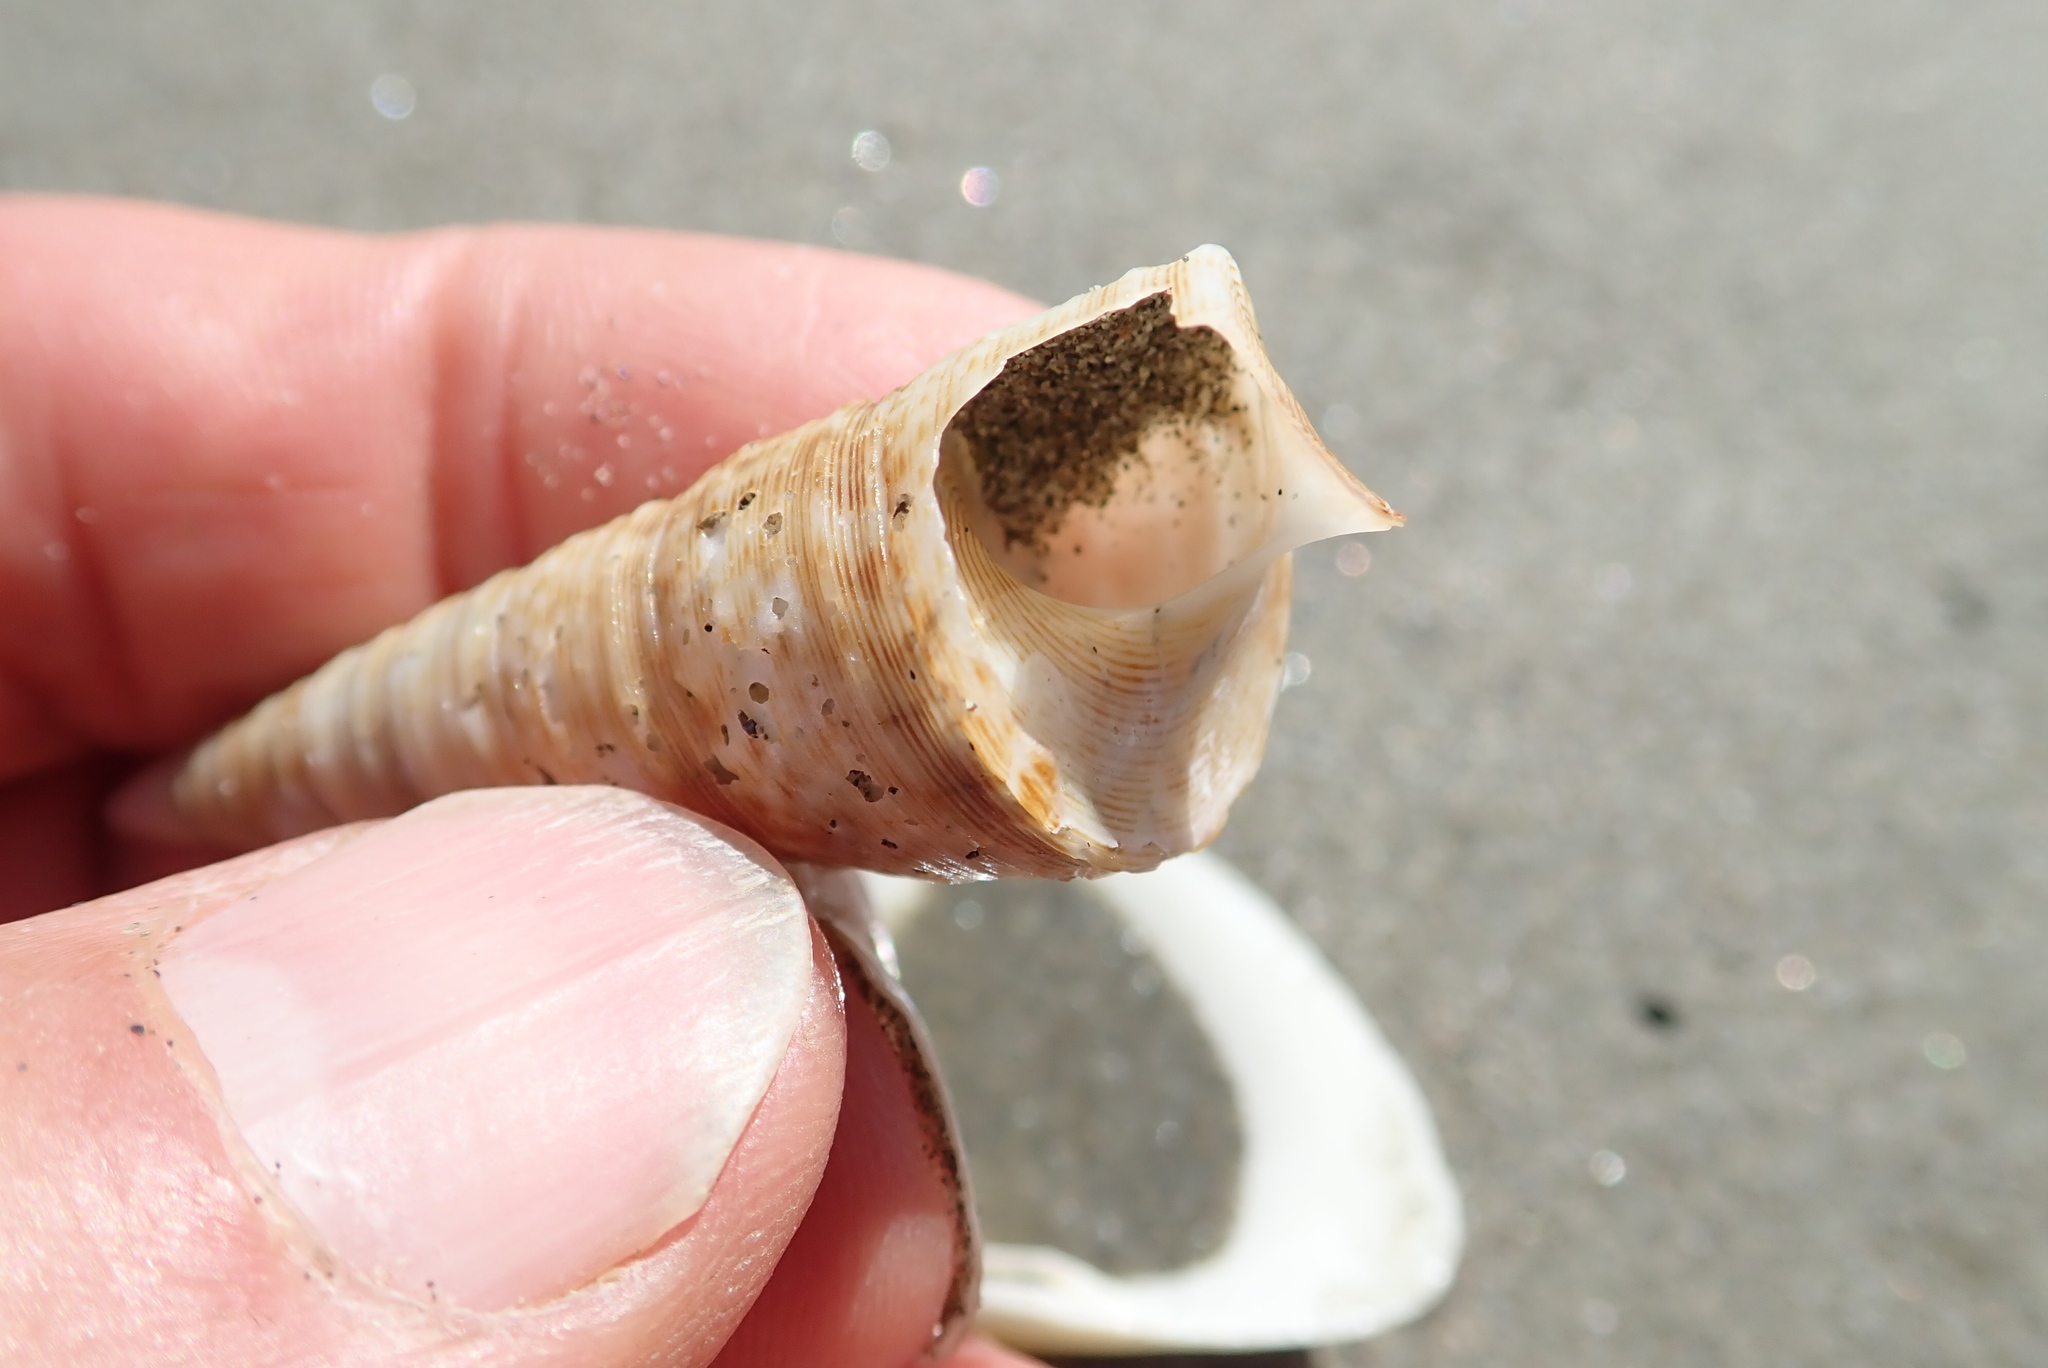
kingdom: Animalia
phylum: Mollusca
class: Gastropoda
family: Turritellidae
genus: Maoricolpus
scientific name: Maoricolpus roseus
